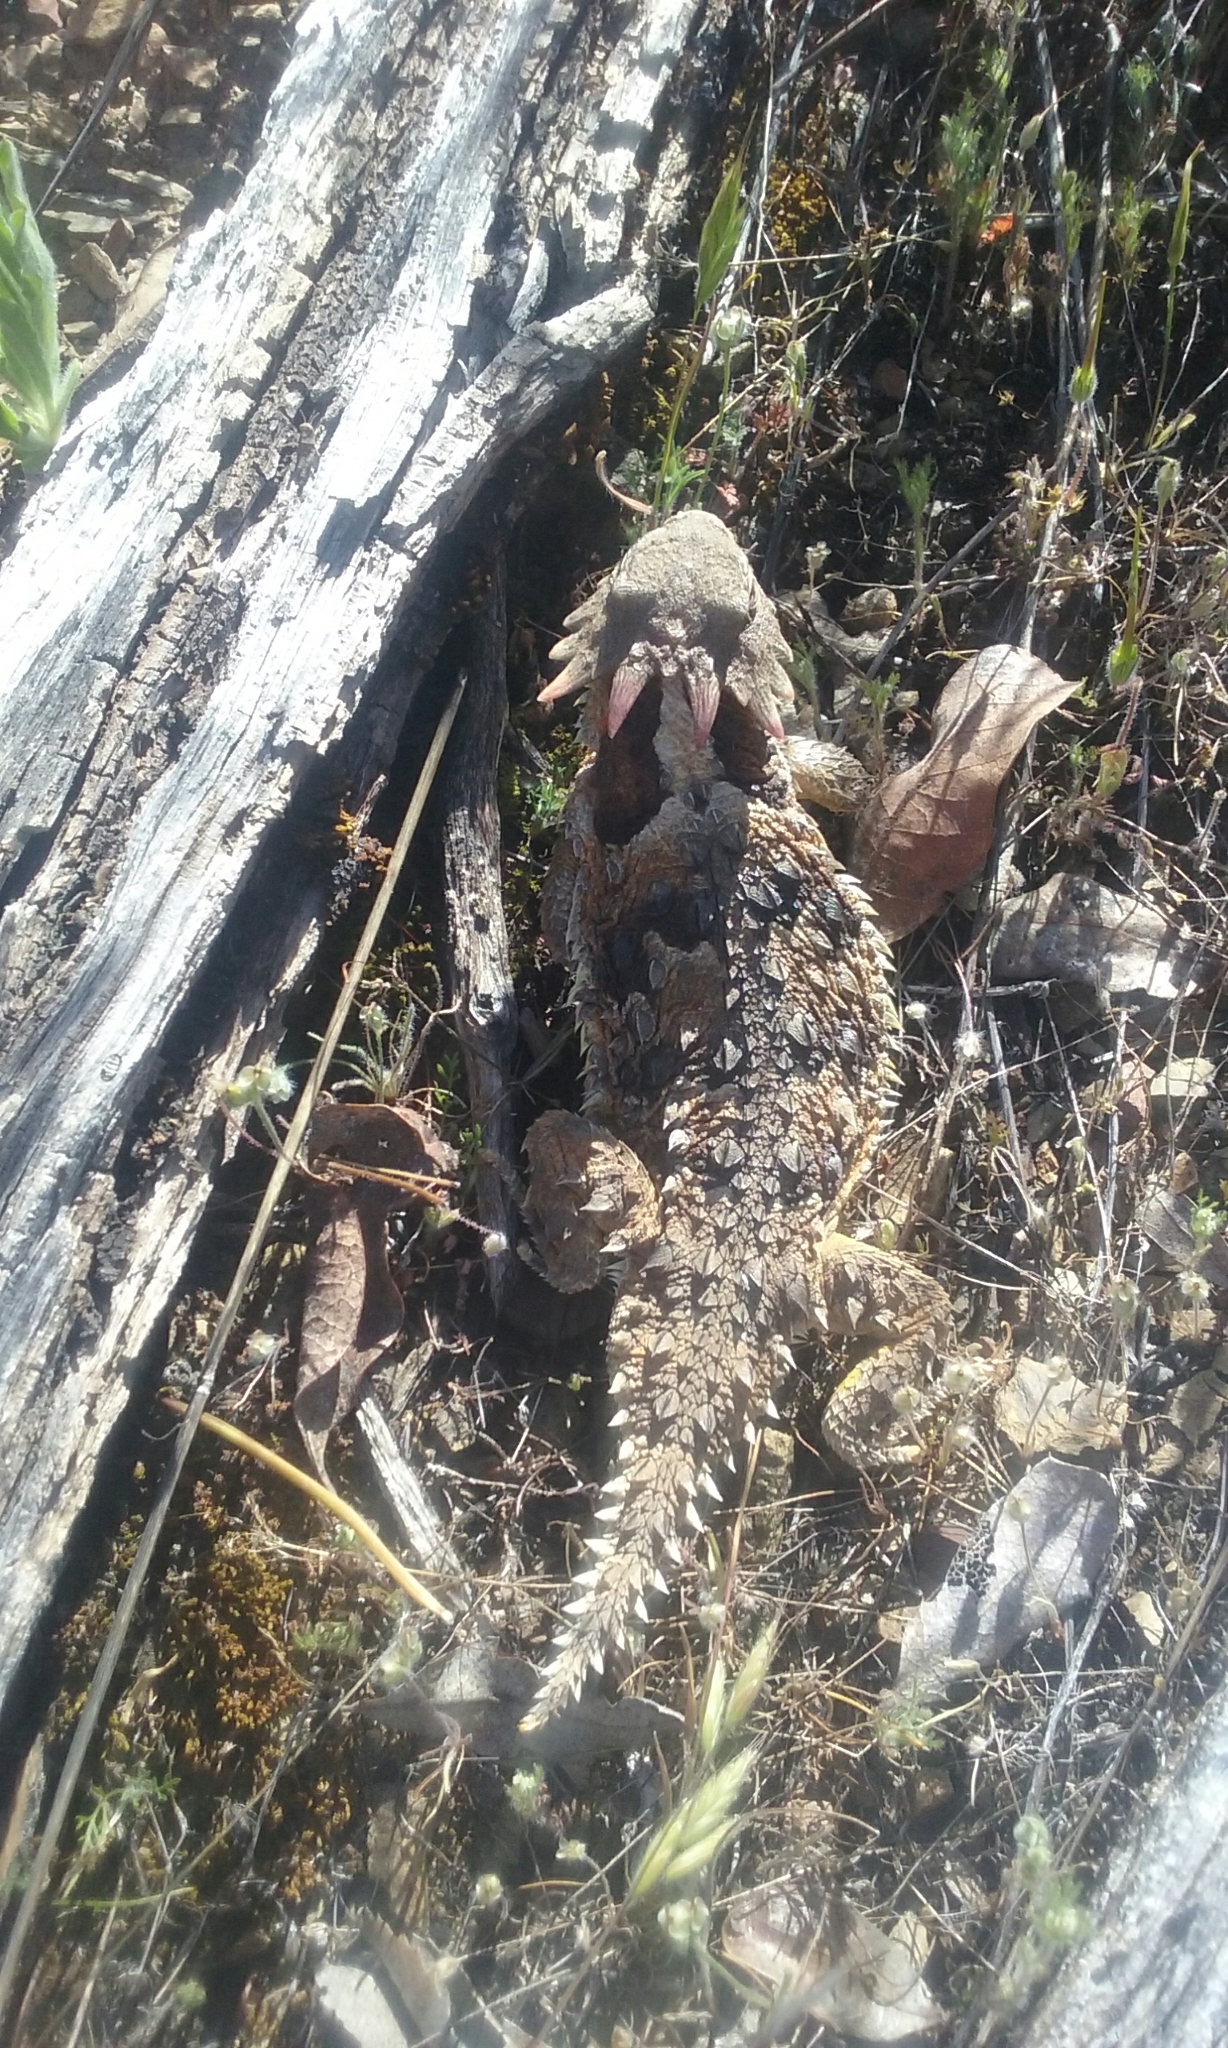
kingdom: Animalia
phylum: Chordata
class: Squamata
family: Phrynosomatidae
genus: Phrynosoma
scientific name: Phrynosoma blainvillii
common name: San diego horned lizard
